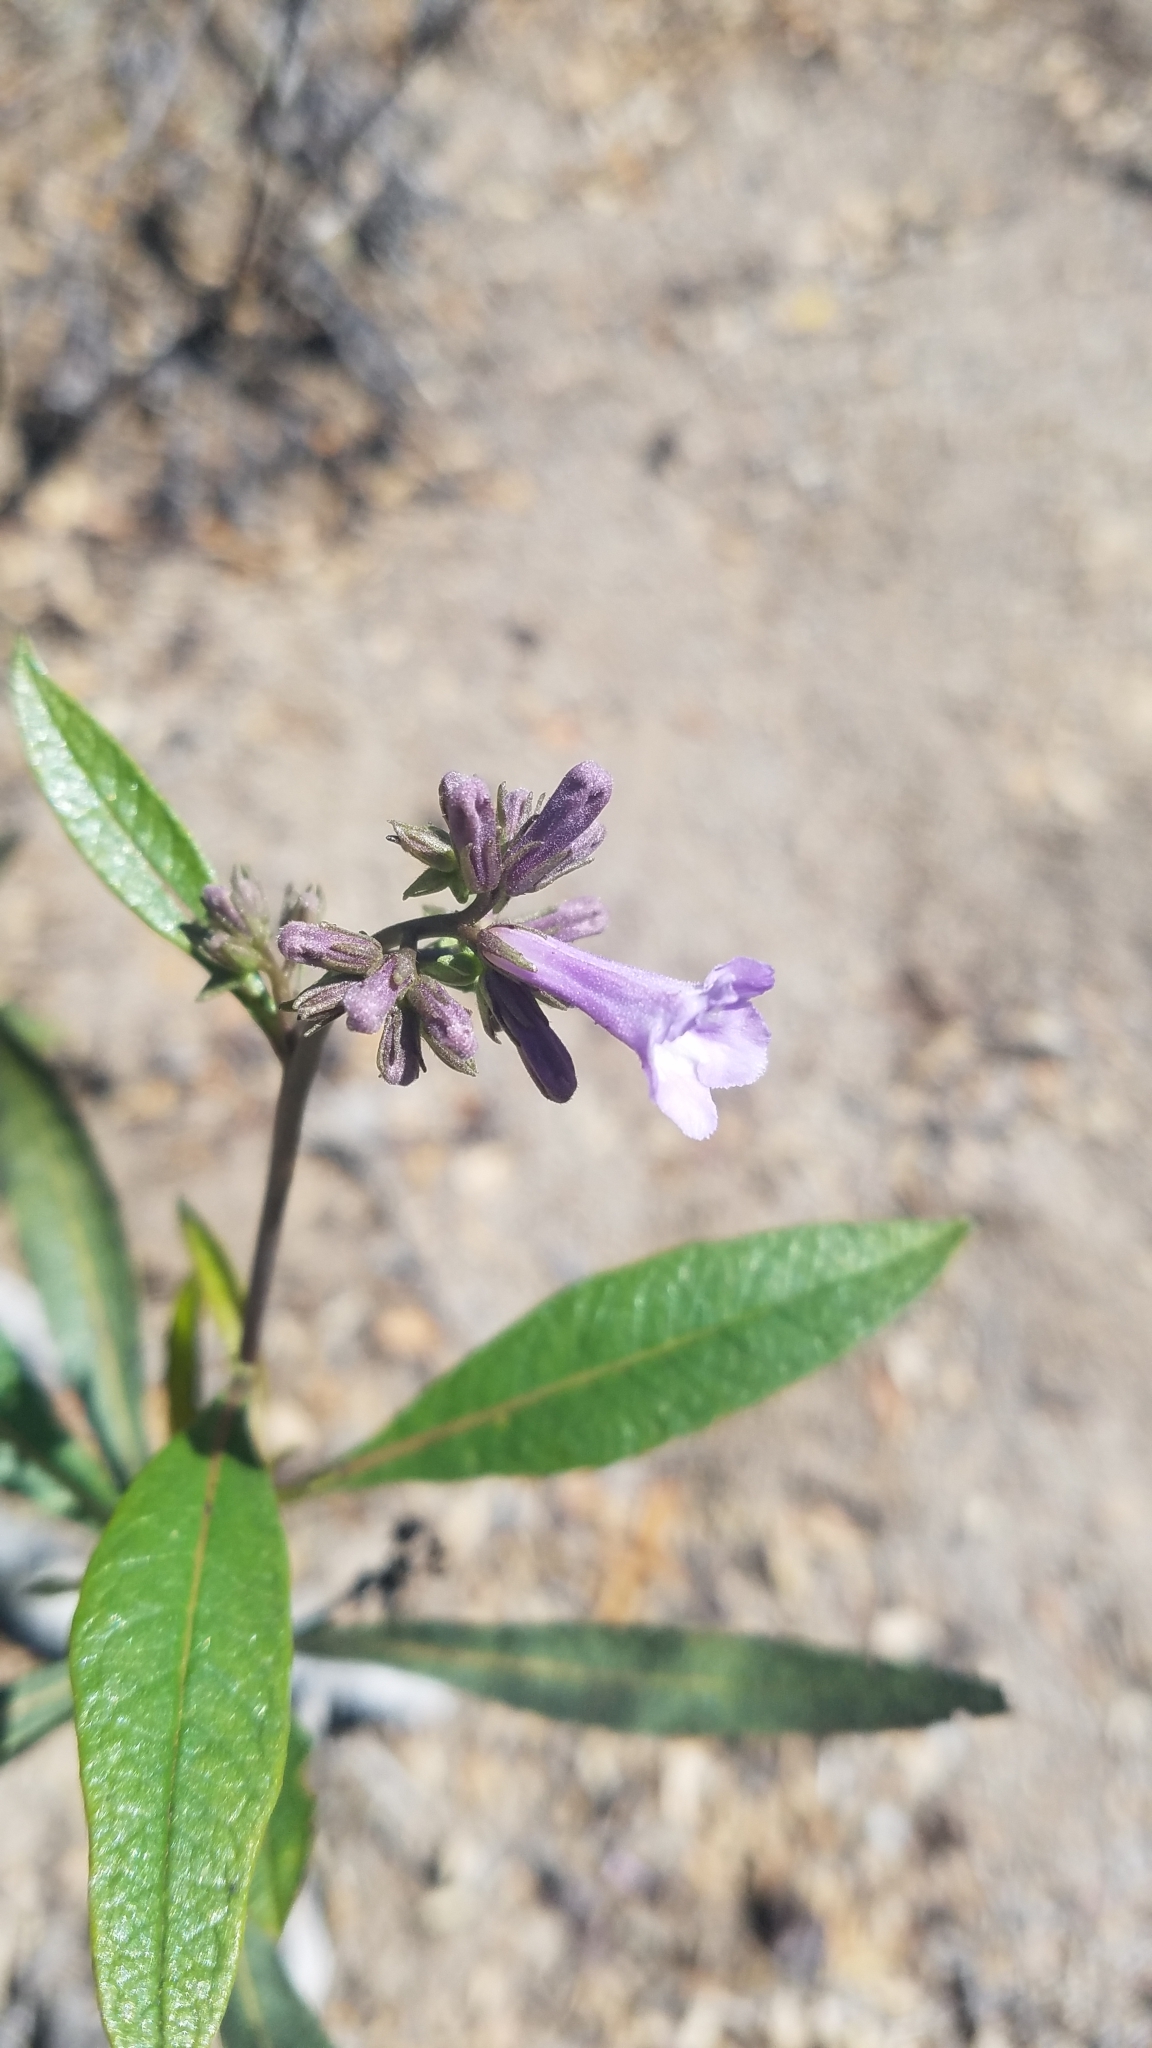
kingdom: Plantae
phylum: Tracheophyta
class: Magnoliopsida
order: Boraginales
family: Namaceae
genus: Eriodictyon
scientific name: Eriodictyon californicum
